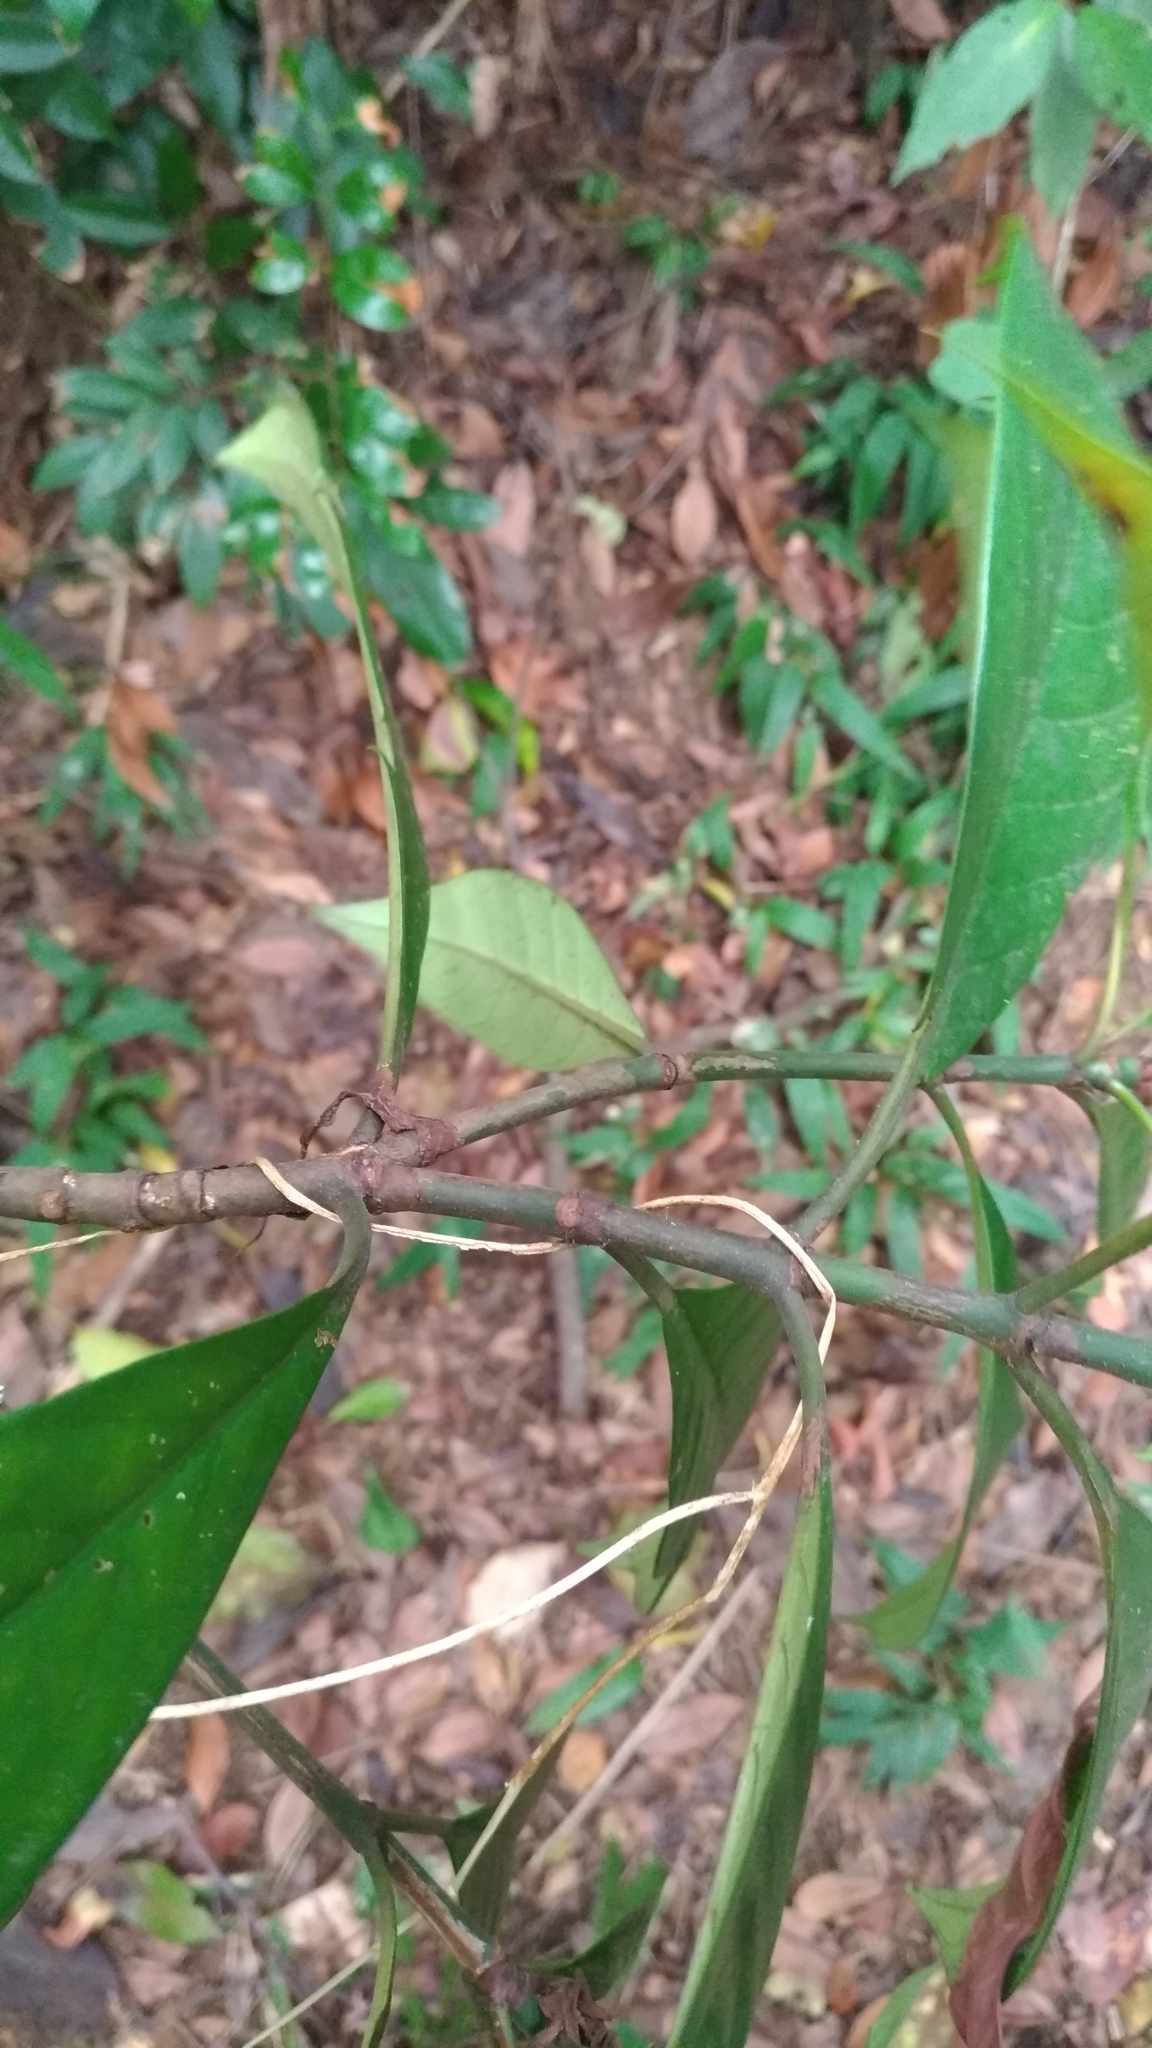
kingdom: Plantae
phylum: Tracheophyta
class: Magnoliopsida
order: Gentianales
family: Rubiaceae
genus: Psychotria
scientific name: Psychotria asiatica
